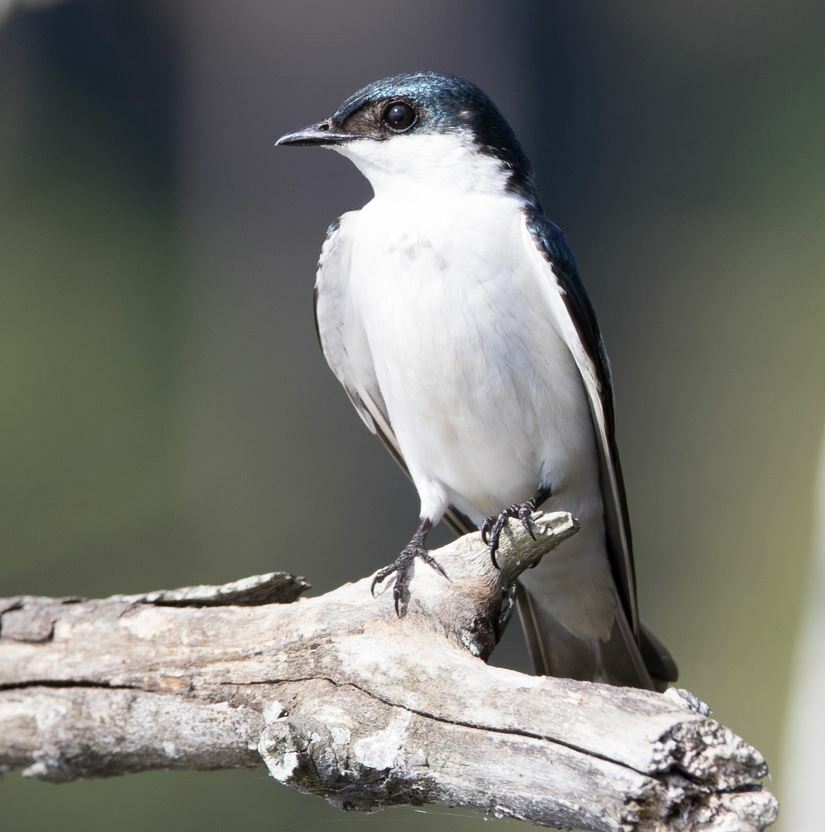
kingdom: Animalia
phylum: Chordata
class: Aves
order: Passeriformes
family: Hirundinidae
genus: Tachycineta
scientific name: Tachycineta albiventer
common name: White-winged swallow
